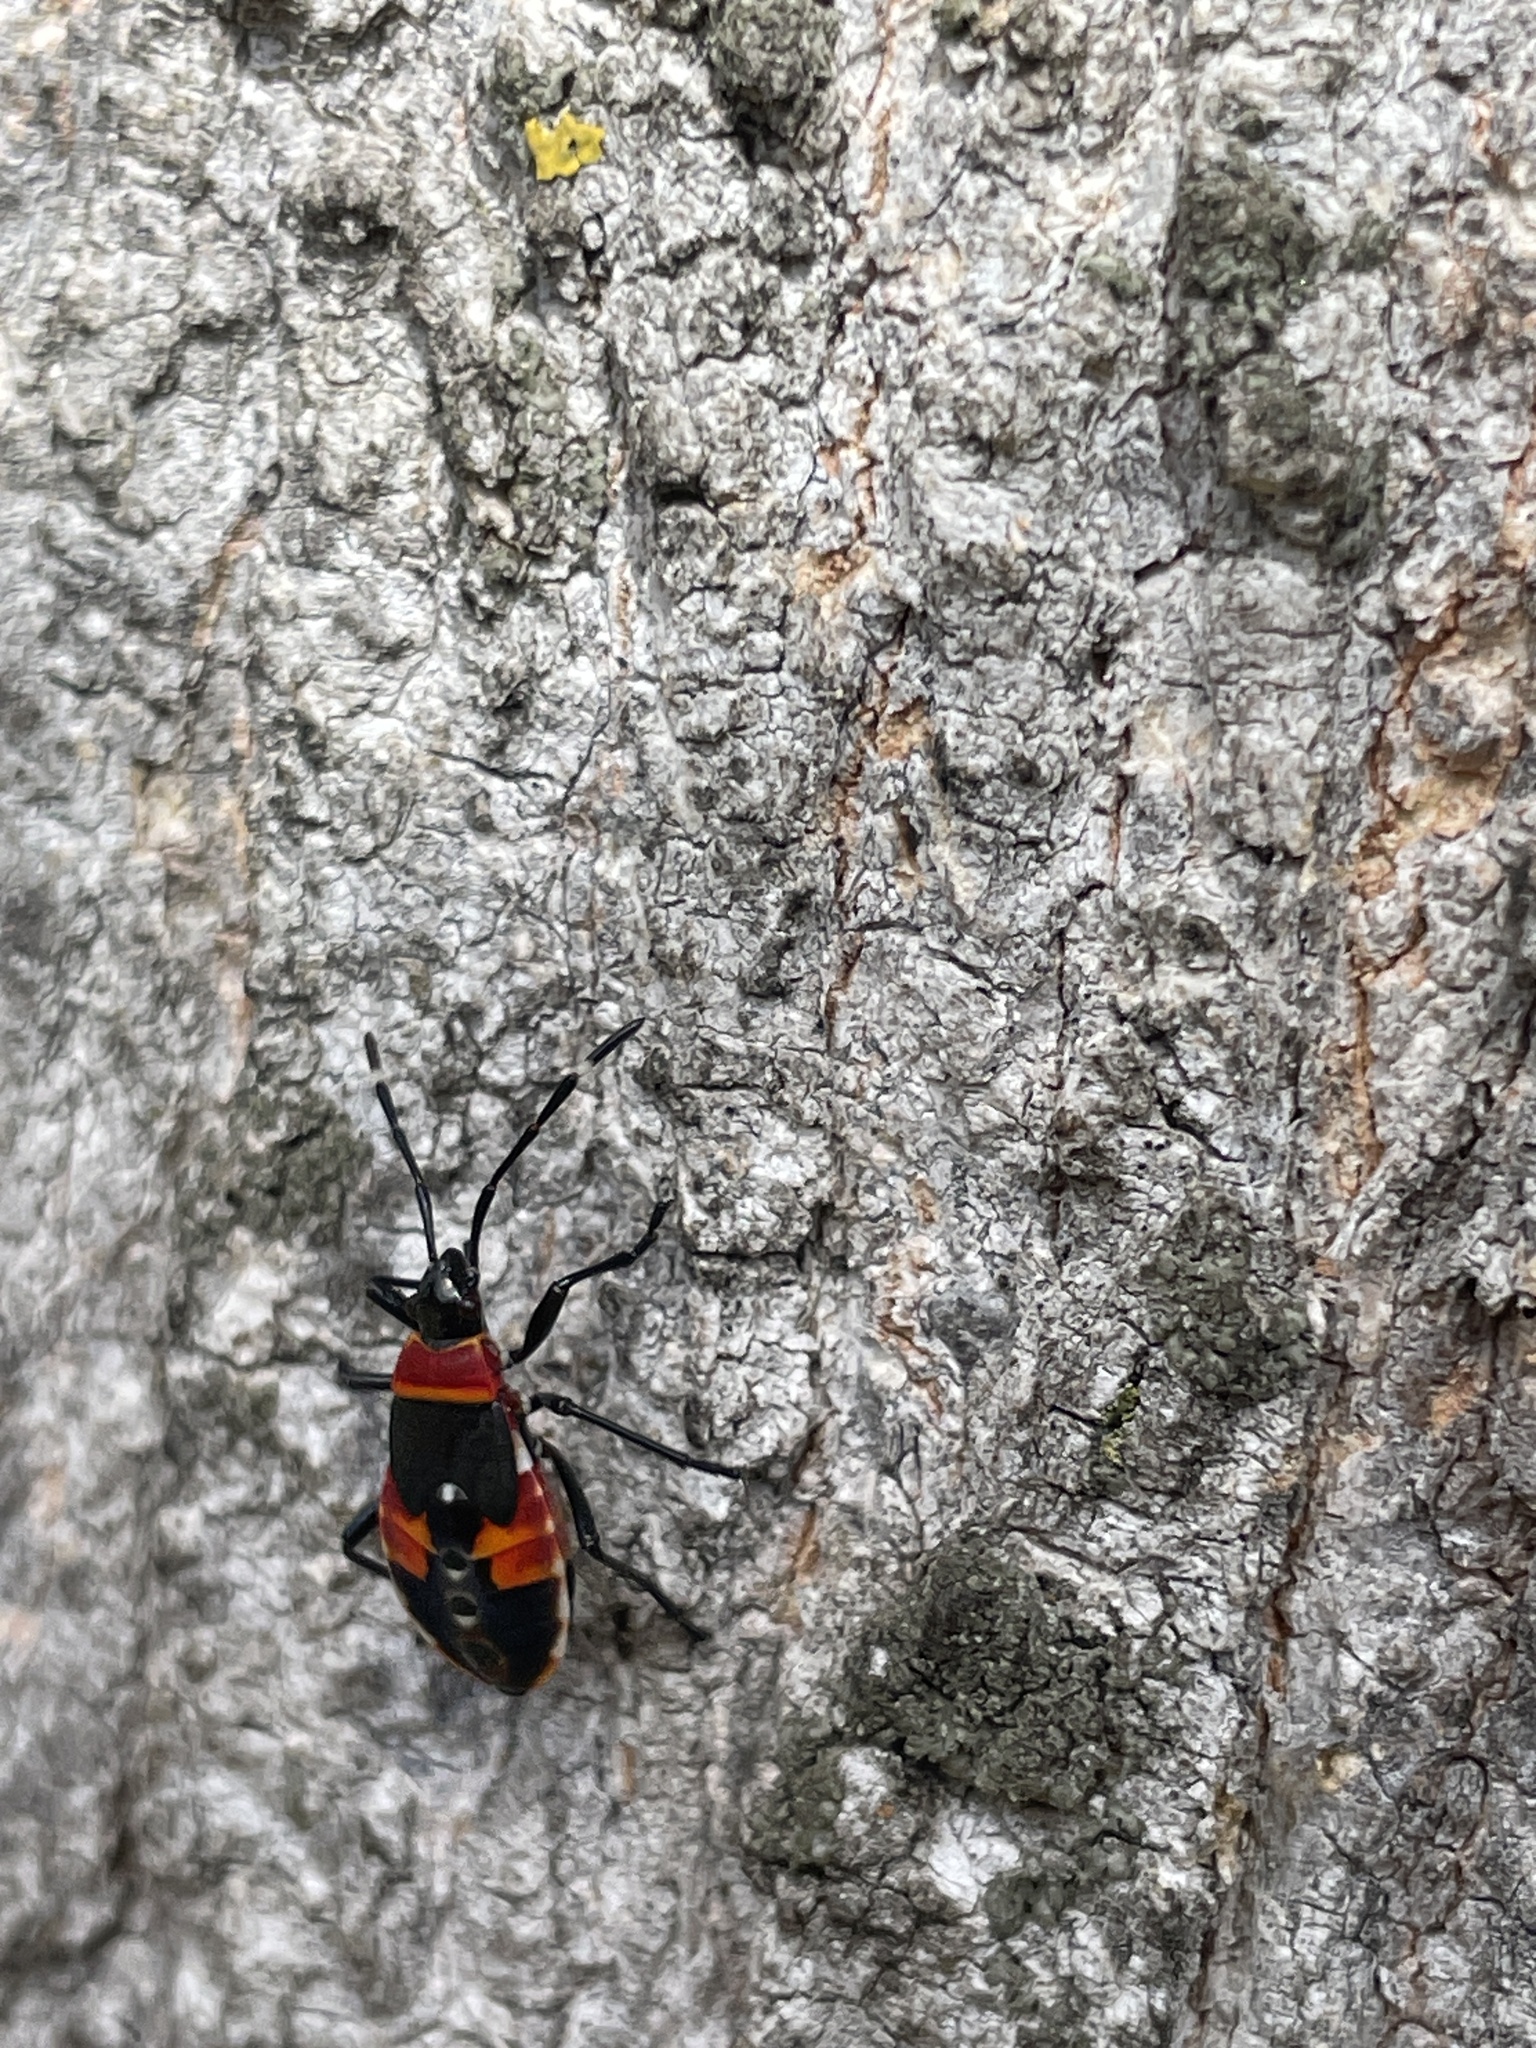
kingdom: Animalia
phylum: Arthropoda
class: Insecta
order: Hemiptera
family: Pyrrhocoridae
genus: Dindymus
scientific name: Dindymus
